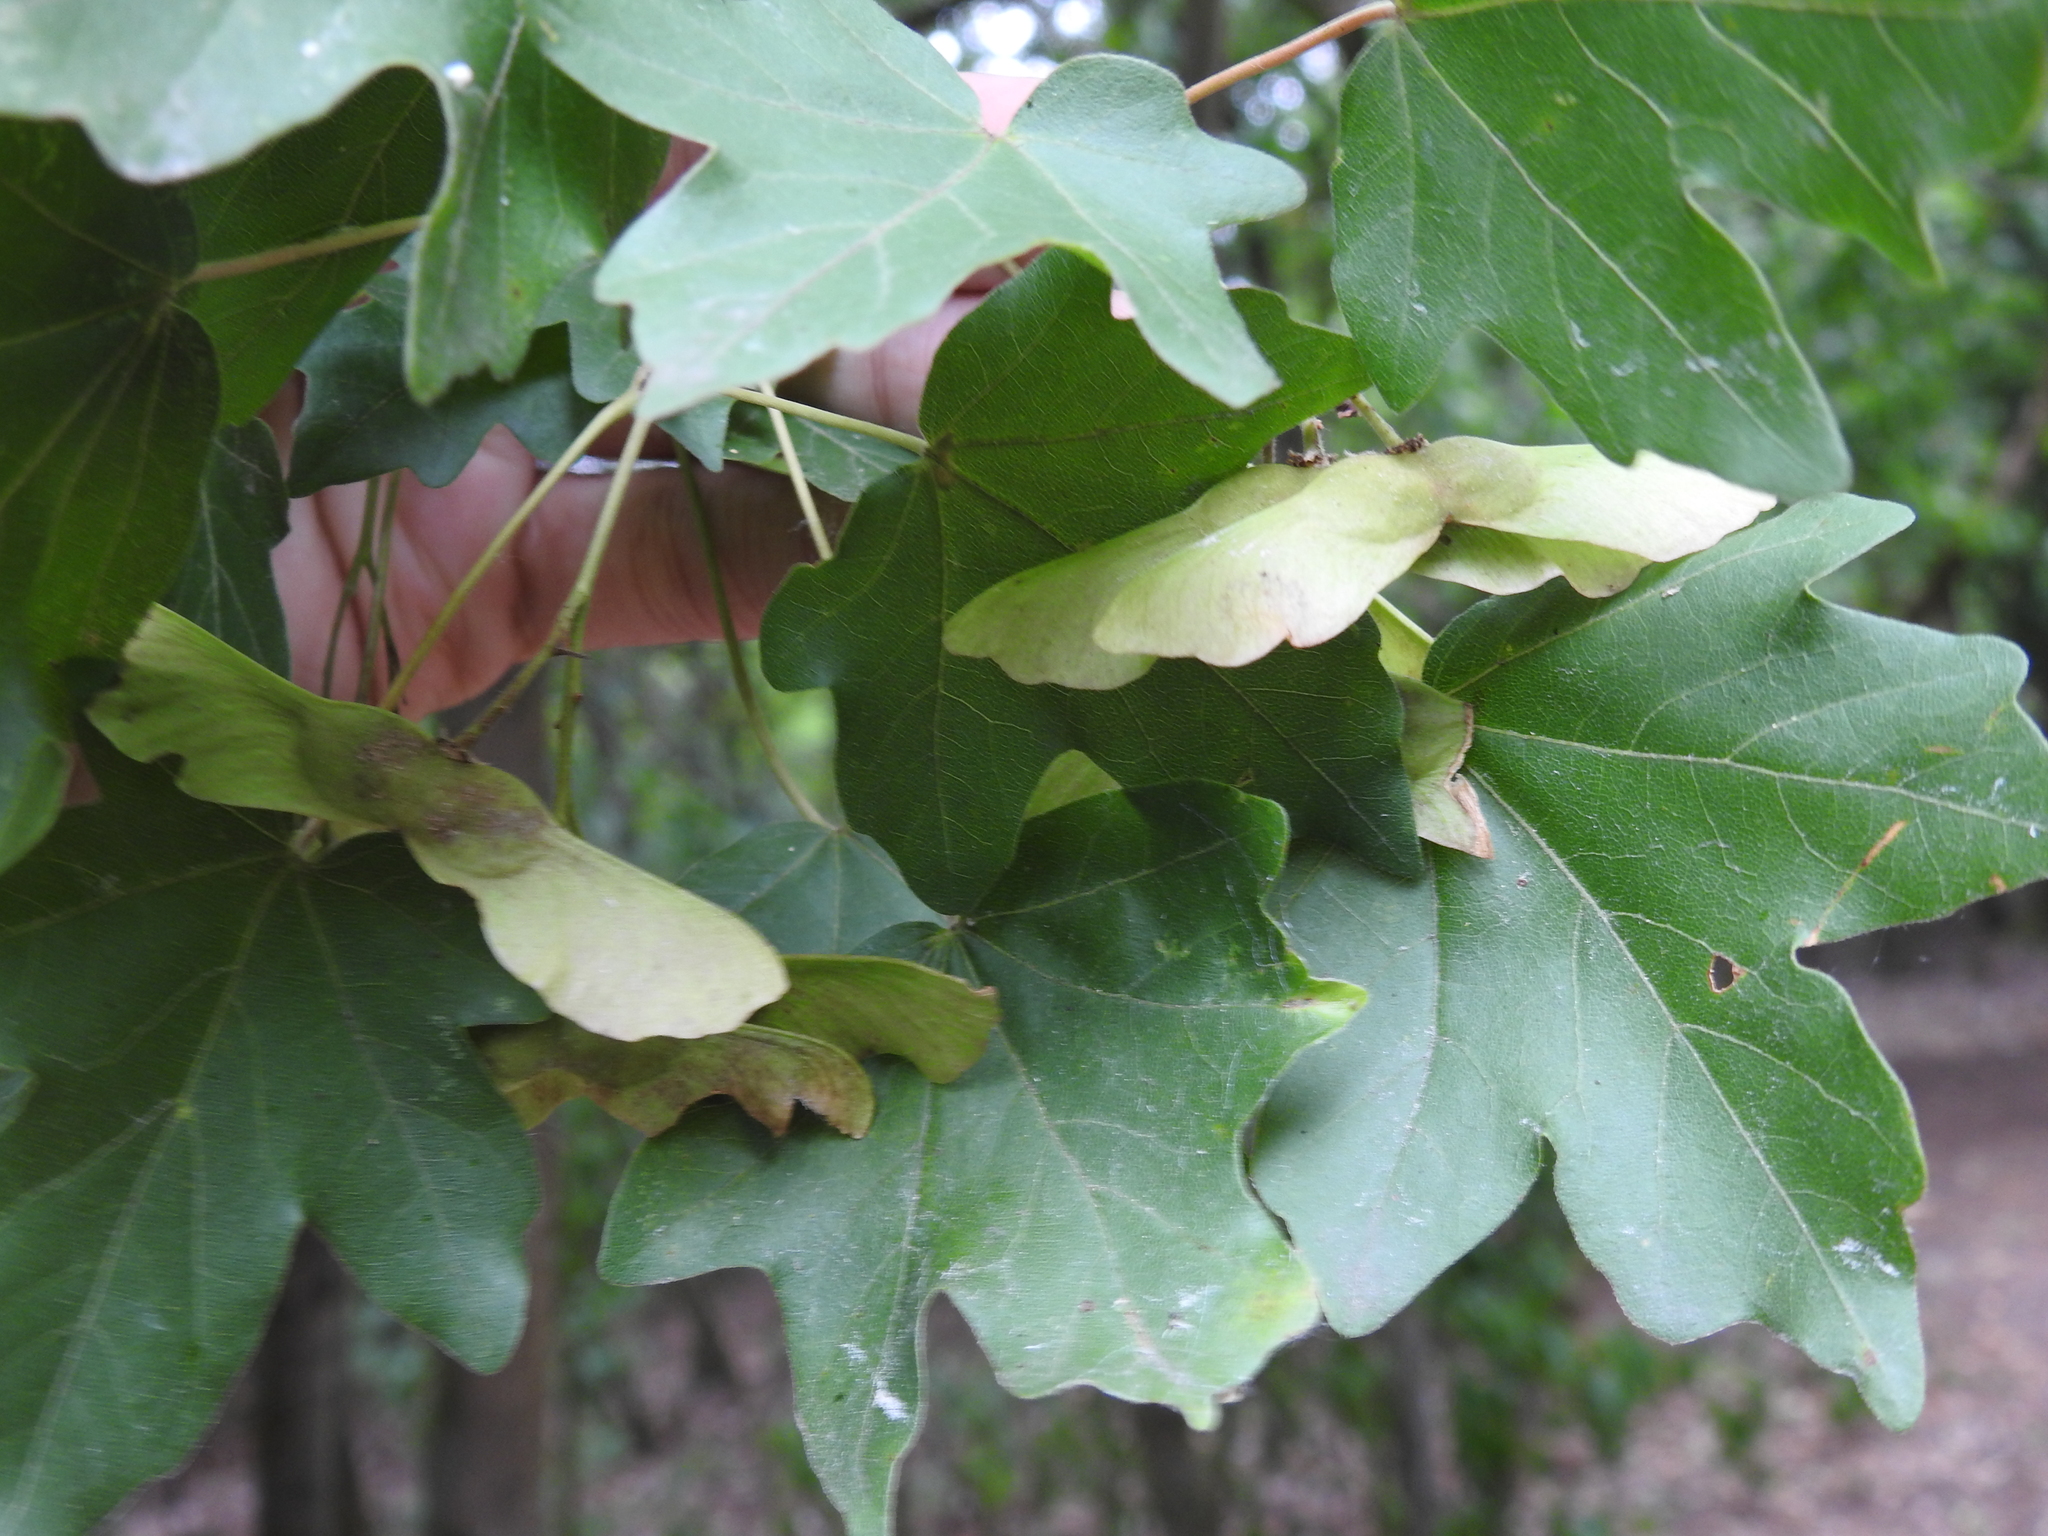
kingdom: Plantae
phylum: Tracheophyta
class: Magnoliopsida
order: Sapindales
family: Sapindaceae
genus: Acer
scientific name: Acer campestre
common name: Field maple
